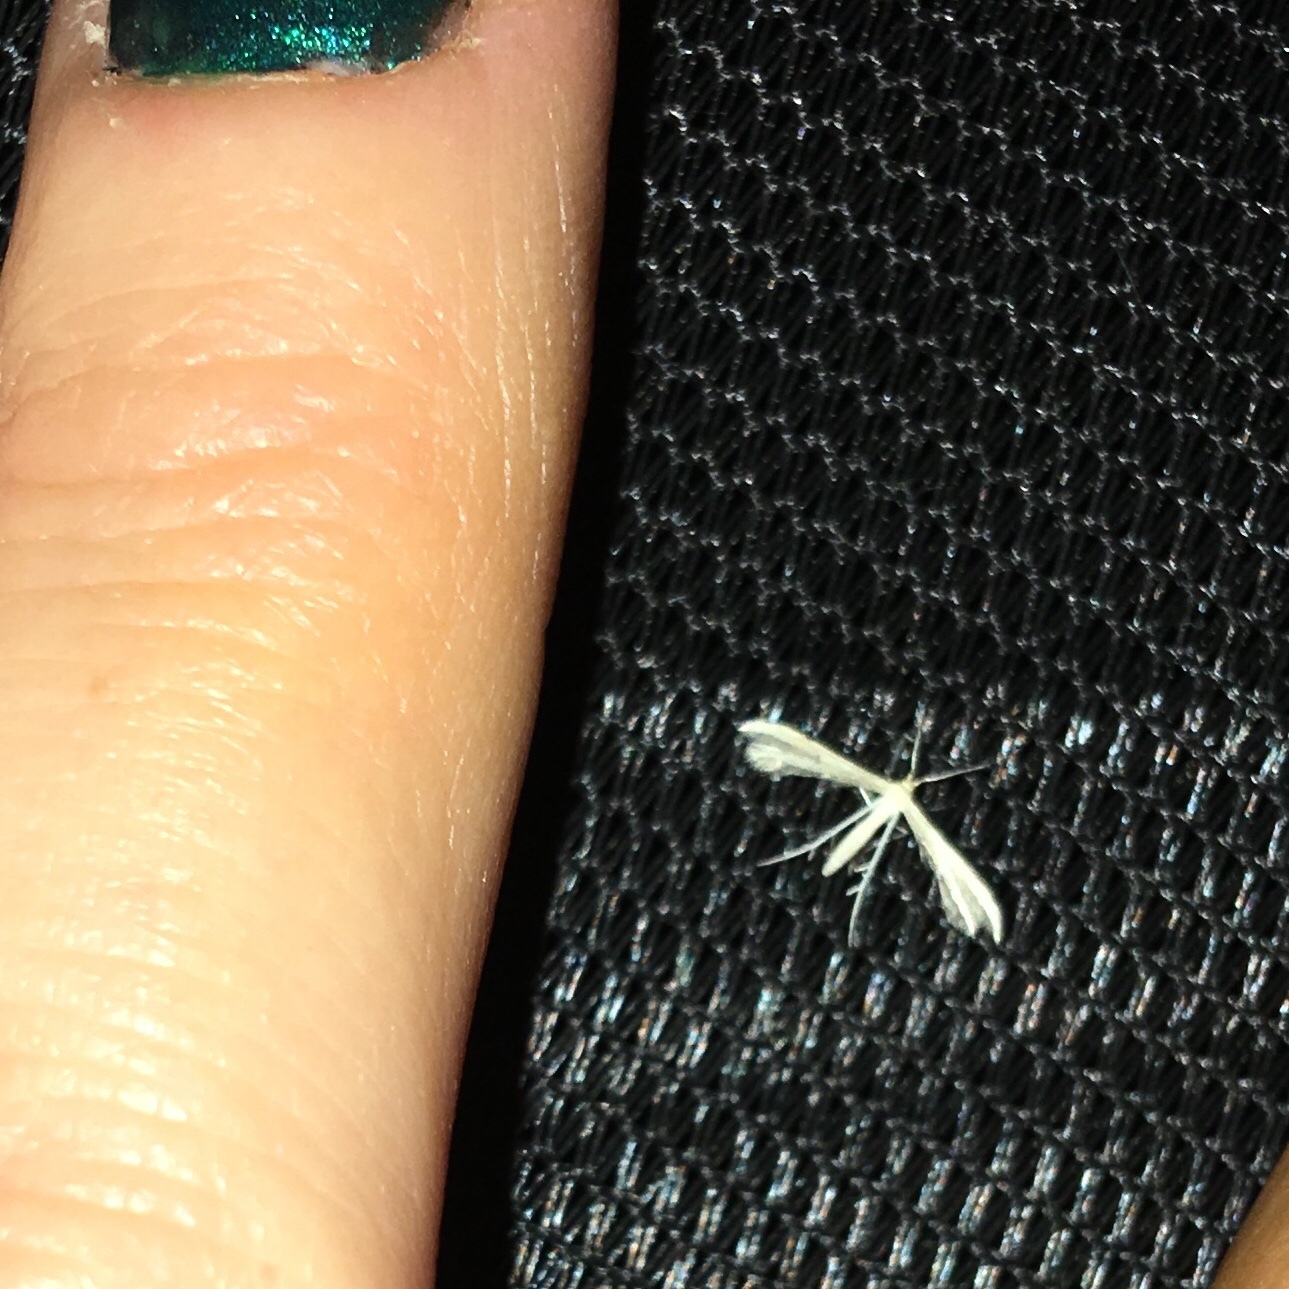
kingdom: Animalia
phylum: Arthropoda
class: Insecta
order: Lepidoptera
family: Pterophoridae
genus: Adaina
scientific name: Adaina
